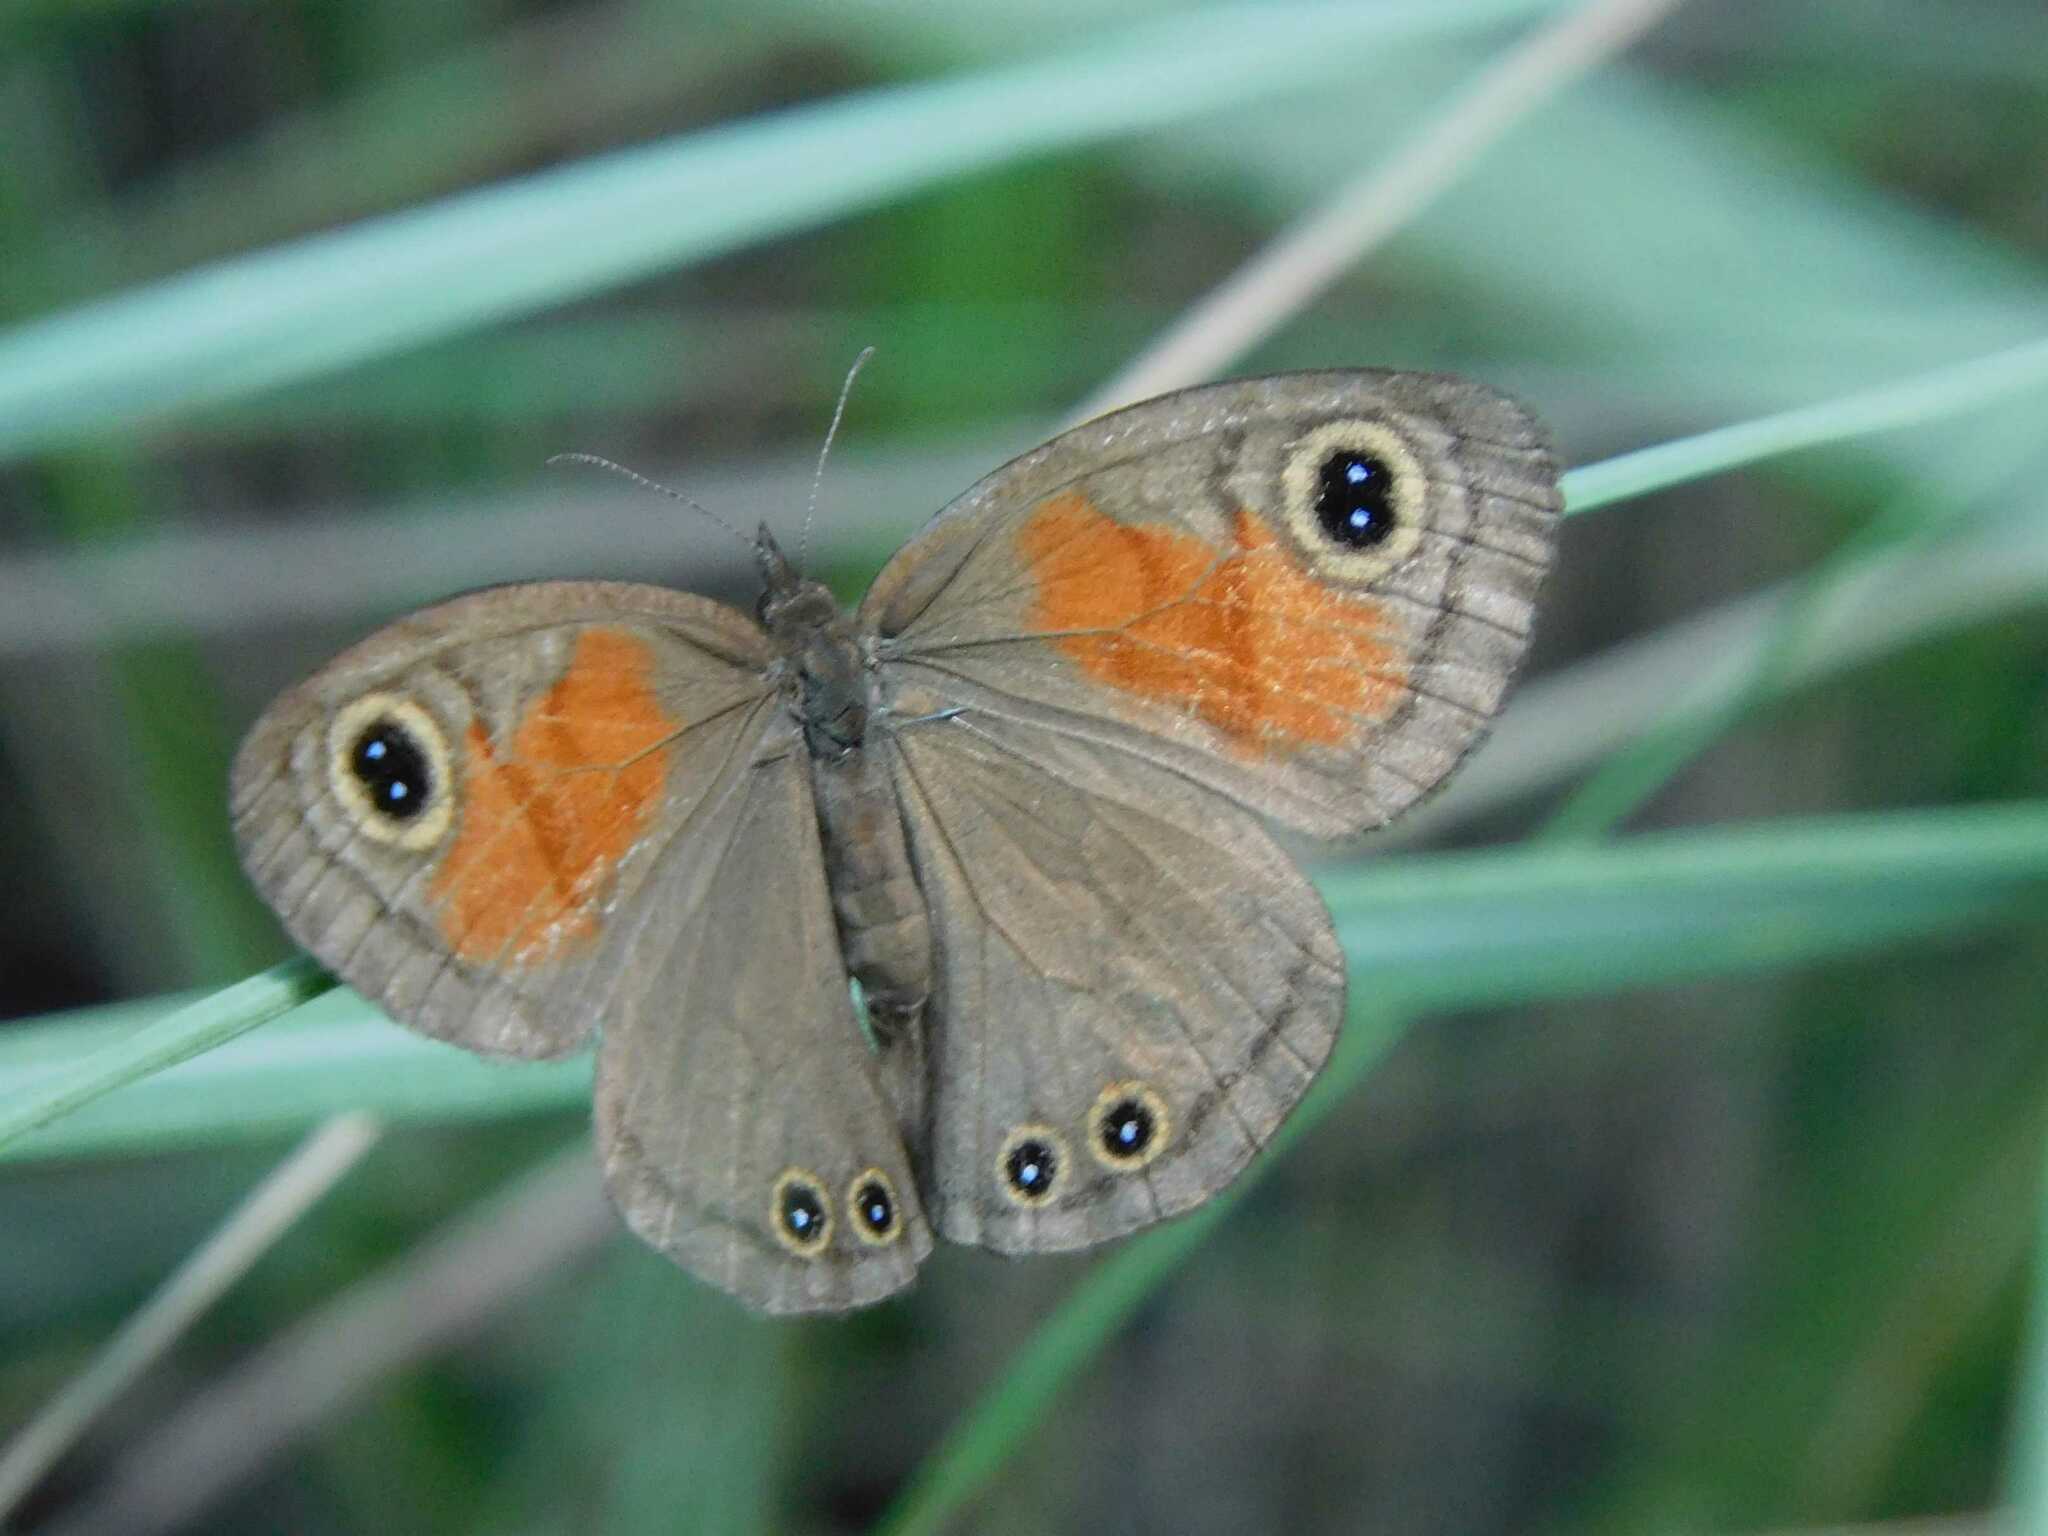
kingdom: Animalia
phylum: Arthropoda
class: Insecta
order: Lepidoptera
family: Nymphalidae
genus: Cassionympha
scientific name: Cassionympha cassius
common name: Rainforest brown
